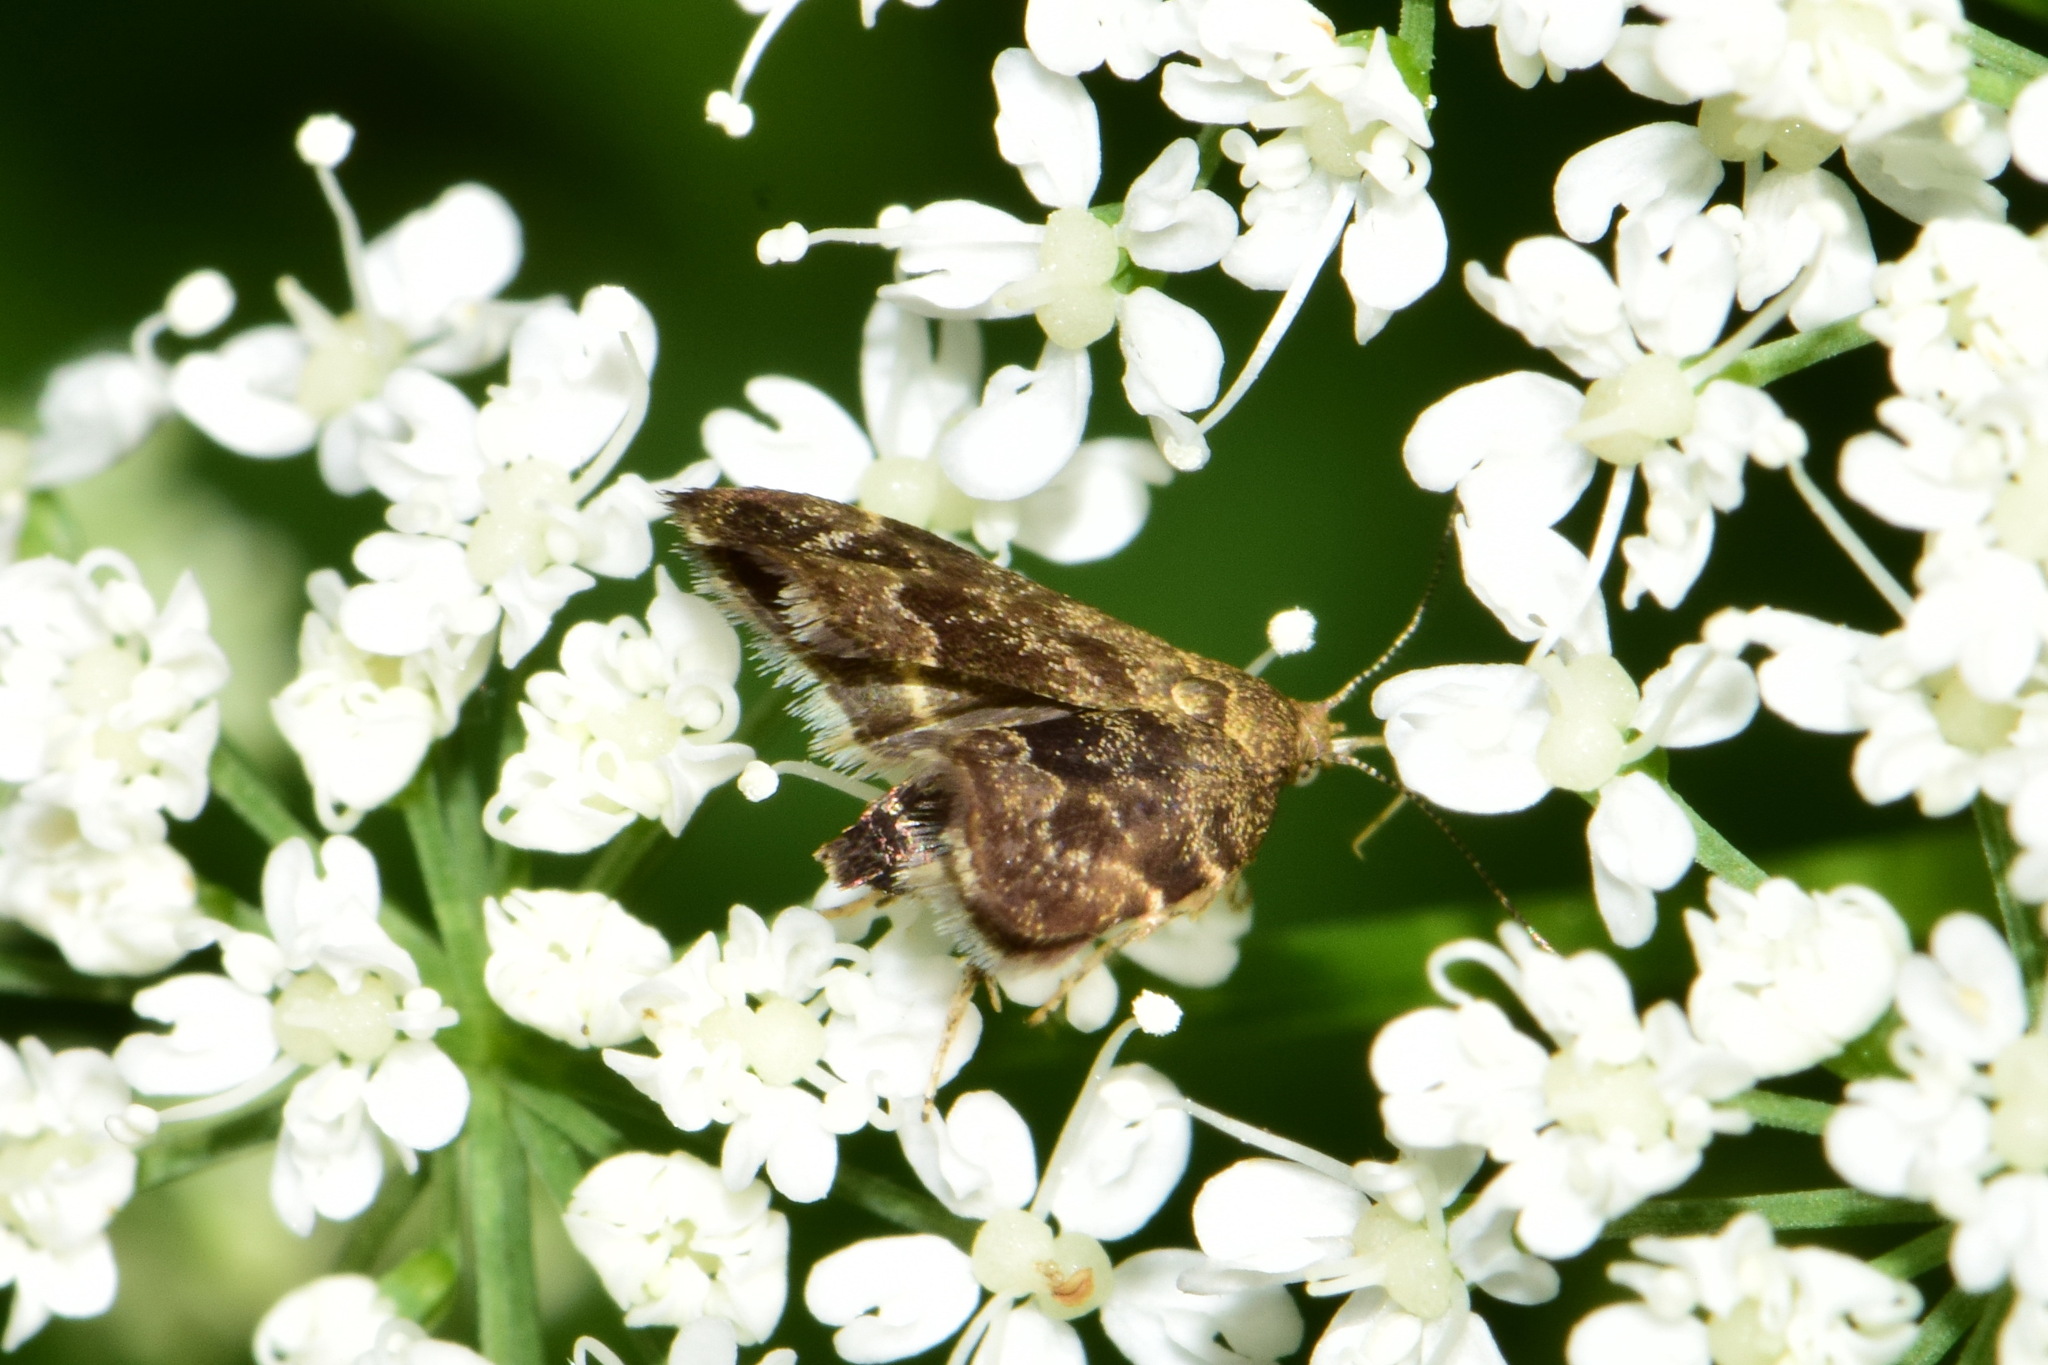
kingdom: Animalia
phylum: Arthropoda
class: Insecta
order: Lepidoptera
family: Choreutidae
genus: Anthophila
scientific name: Anthophila fabriciana
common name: Nettle-tap
